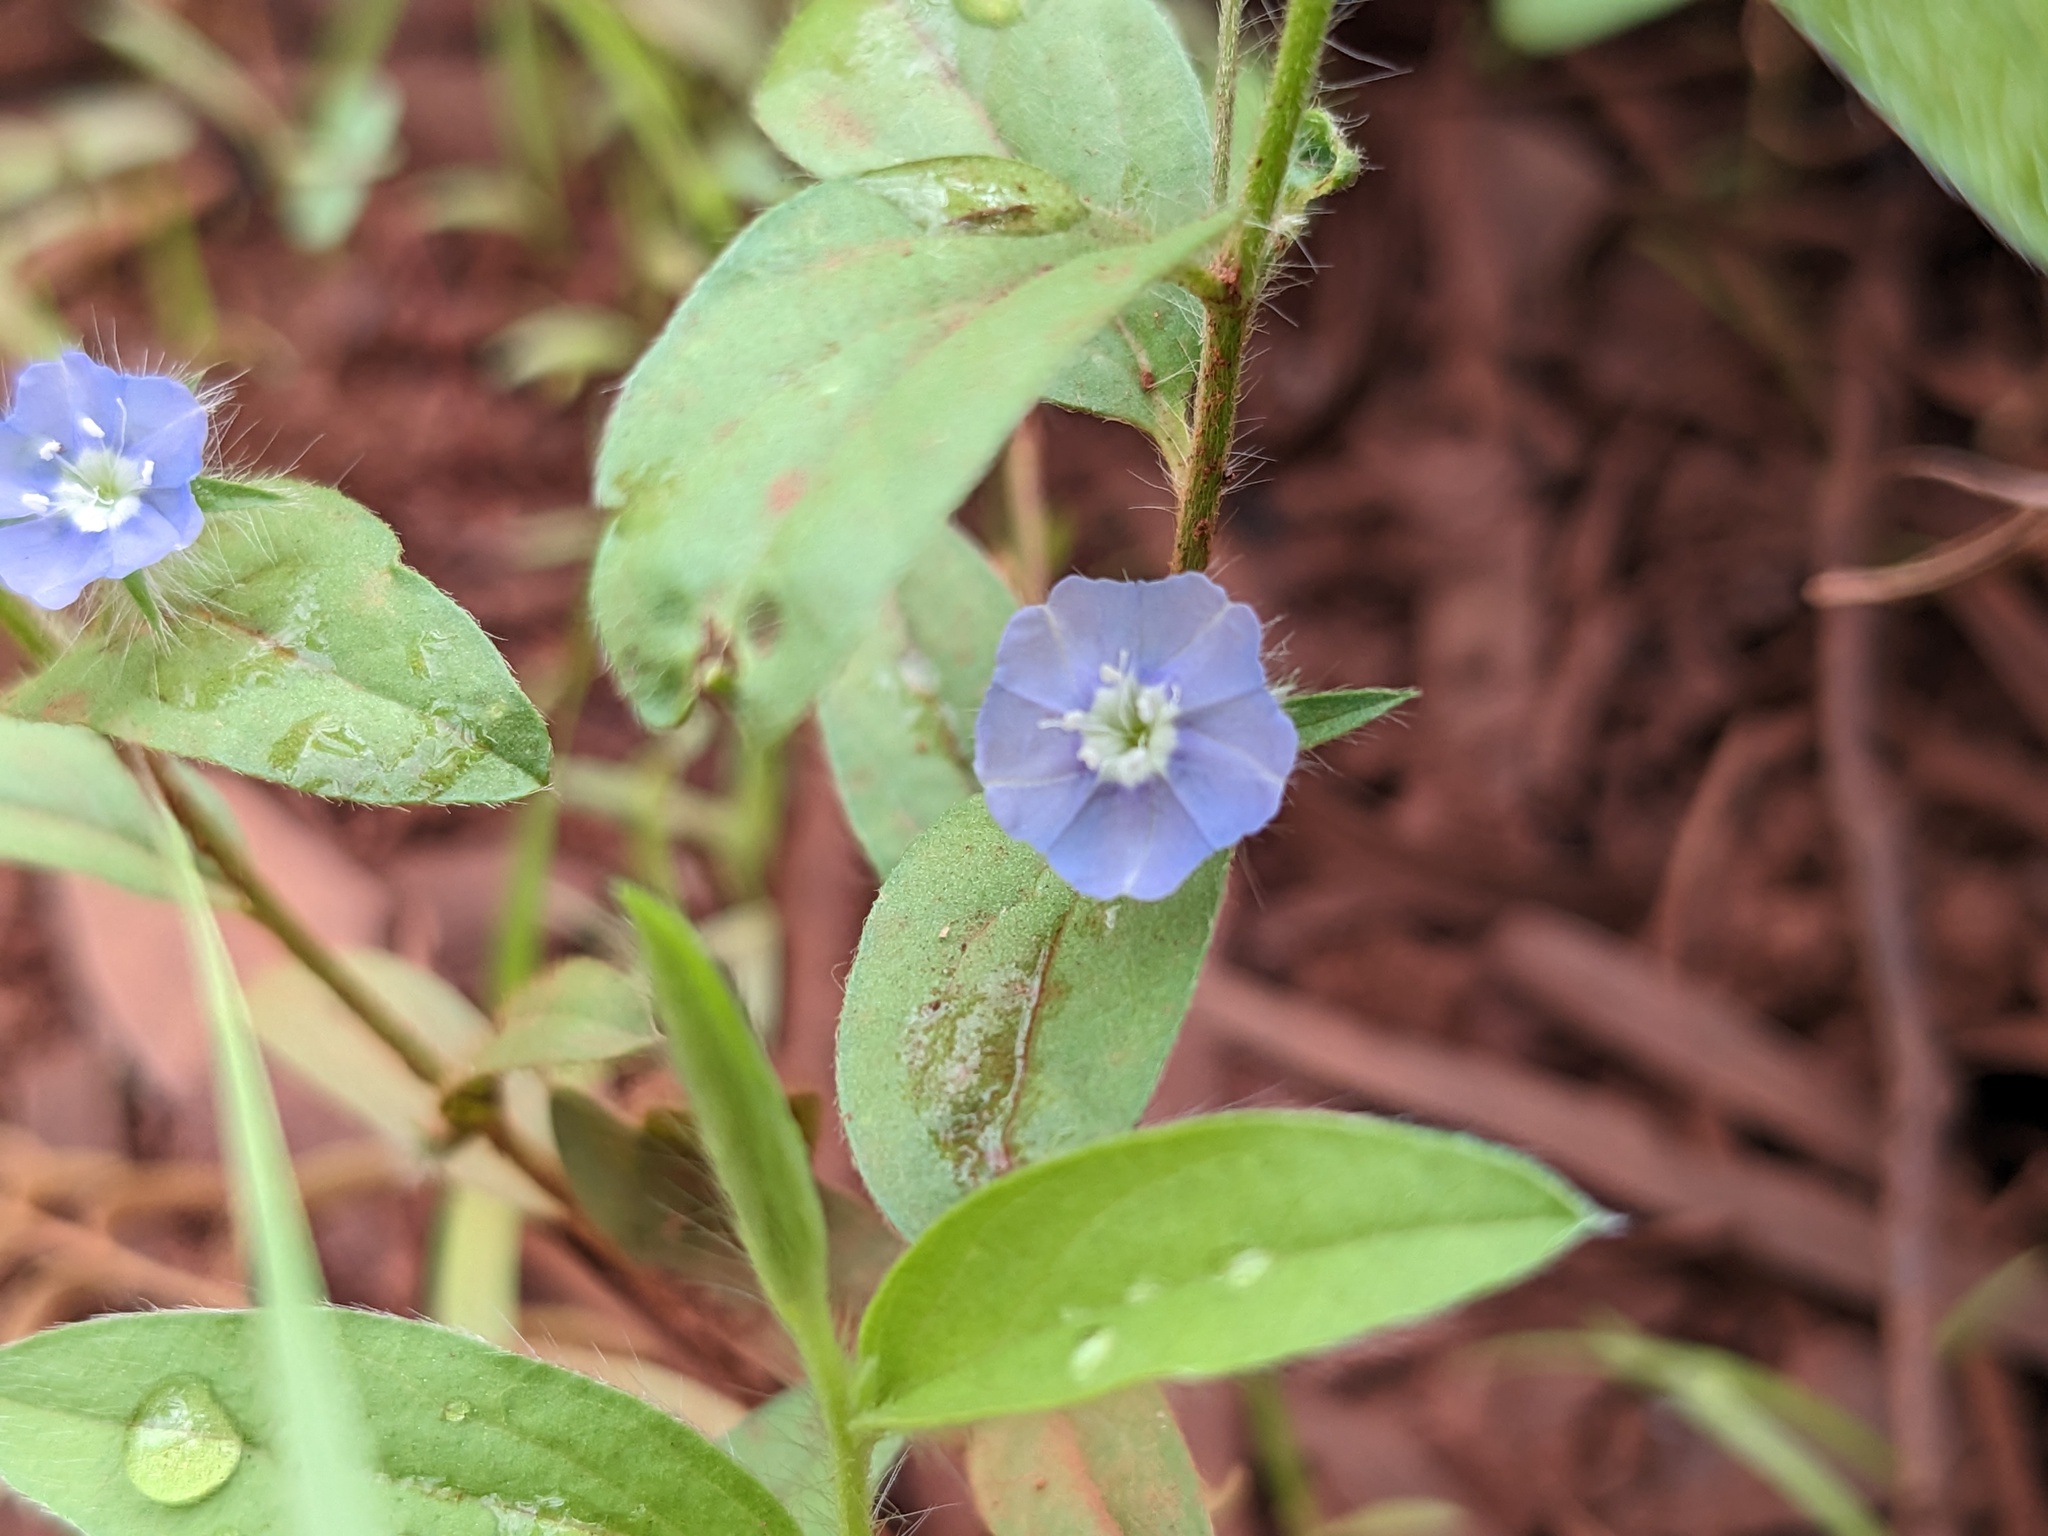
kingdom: Plantae
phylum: Tracheophyta
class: Magnoliopsida
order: Solanales
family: Convolvulaceae
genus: Evolvulus
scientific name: Evolvulus alsinoides
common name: Slender dwarf morning-glory
